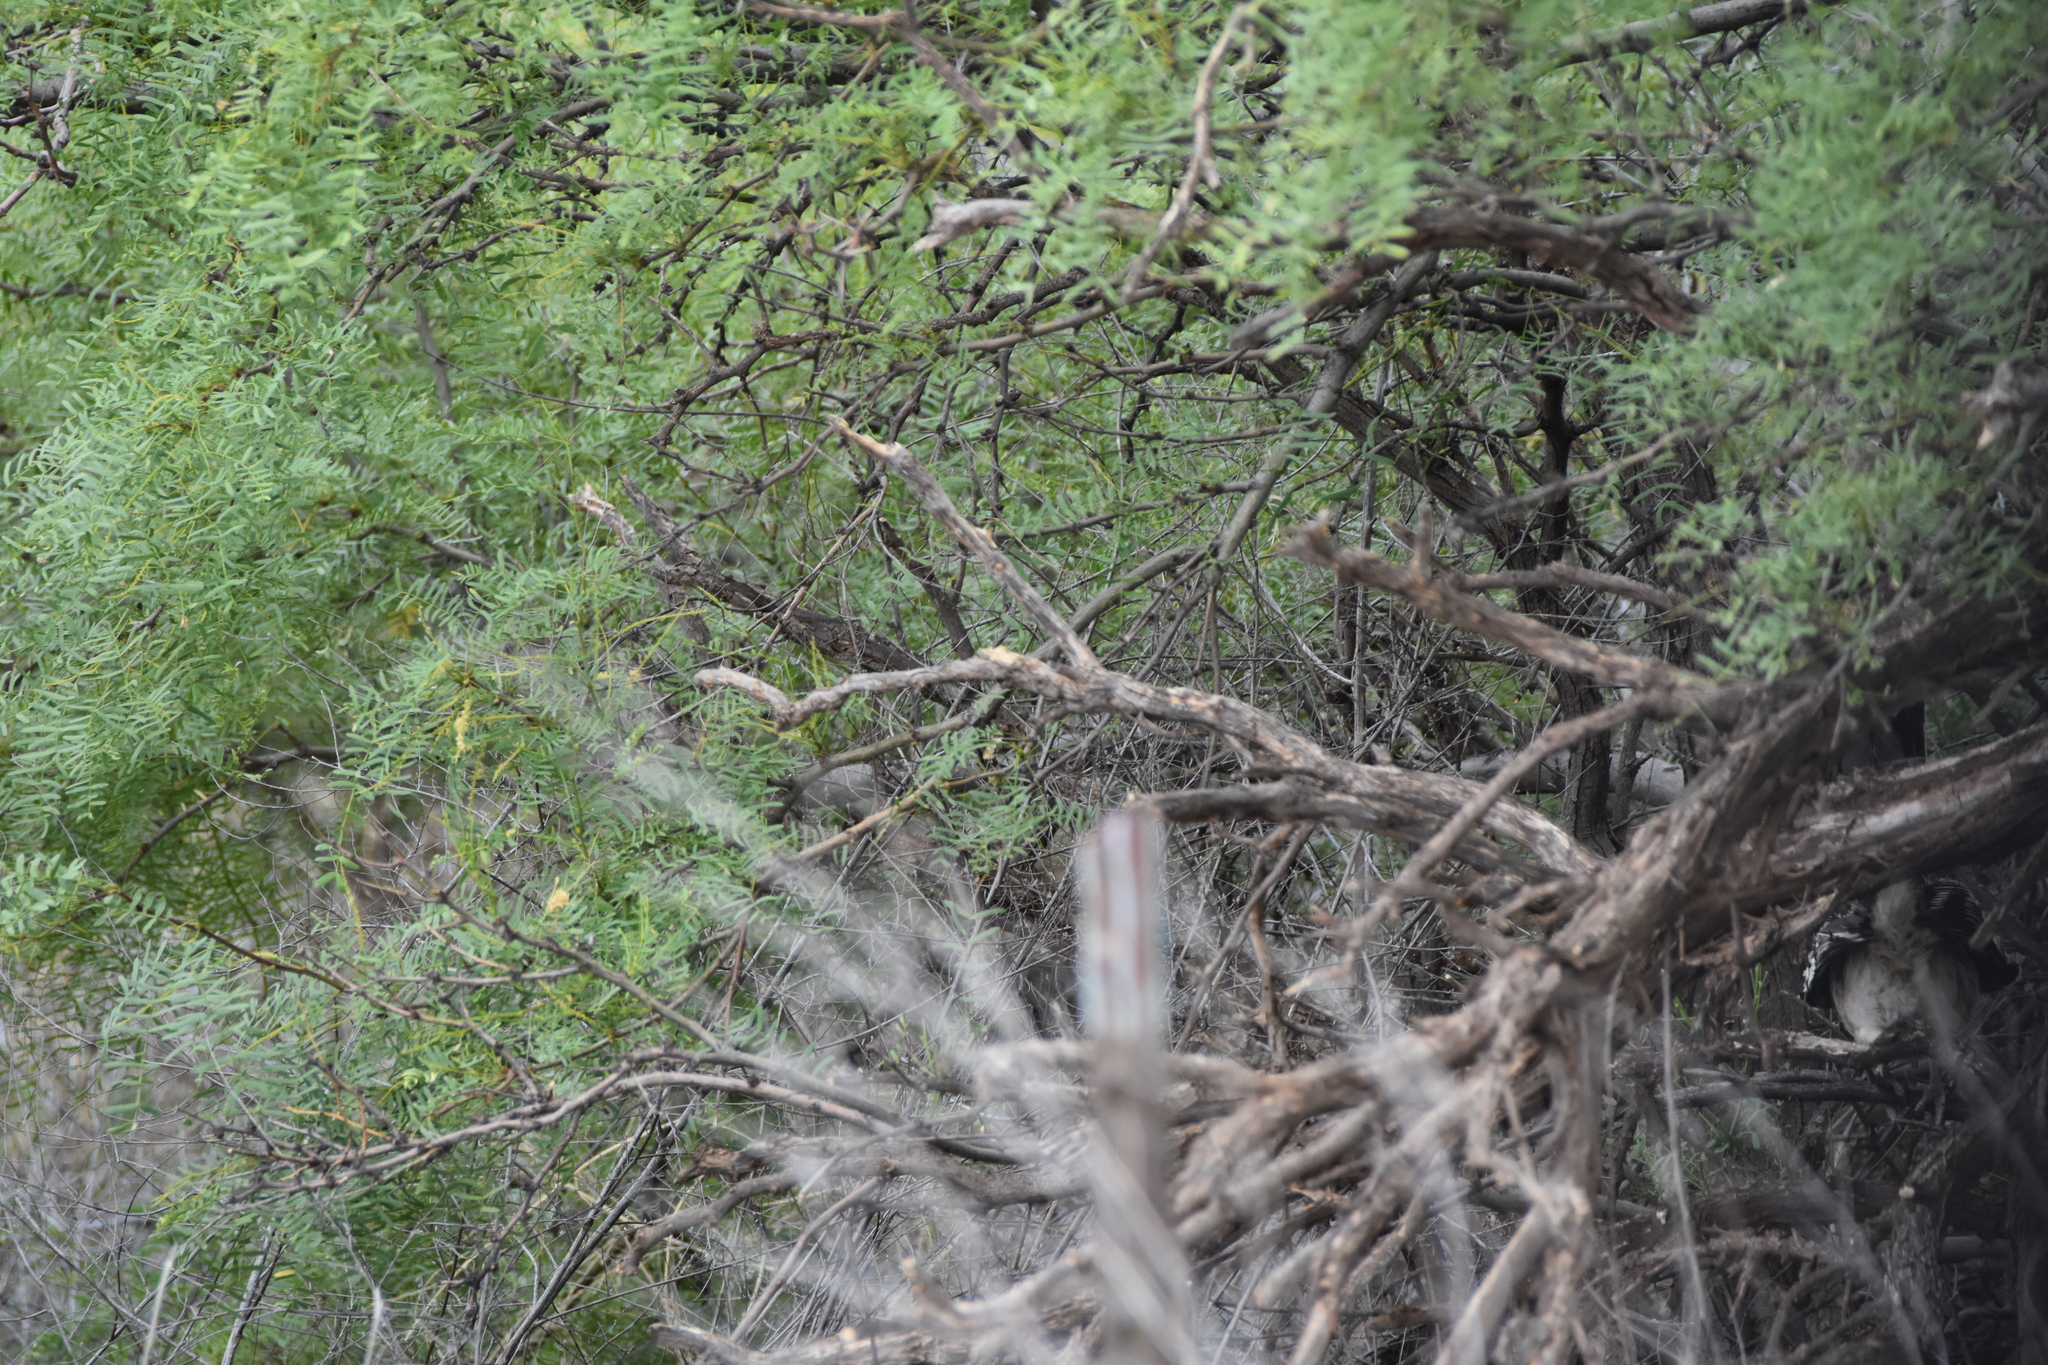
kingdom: Animalia
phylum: Chordata
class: Aves
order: Cuculiformes
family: Cuculidae
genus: Geococcyx
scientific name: Geococcyx californianus
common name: Greater roadrunner
